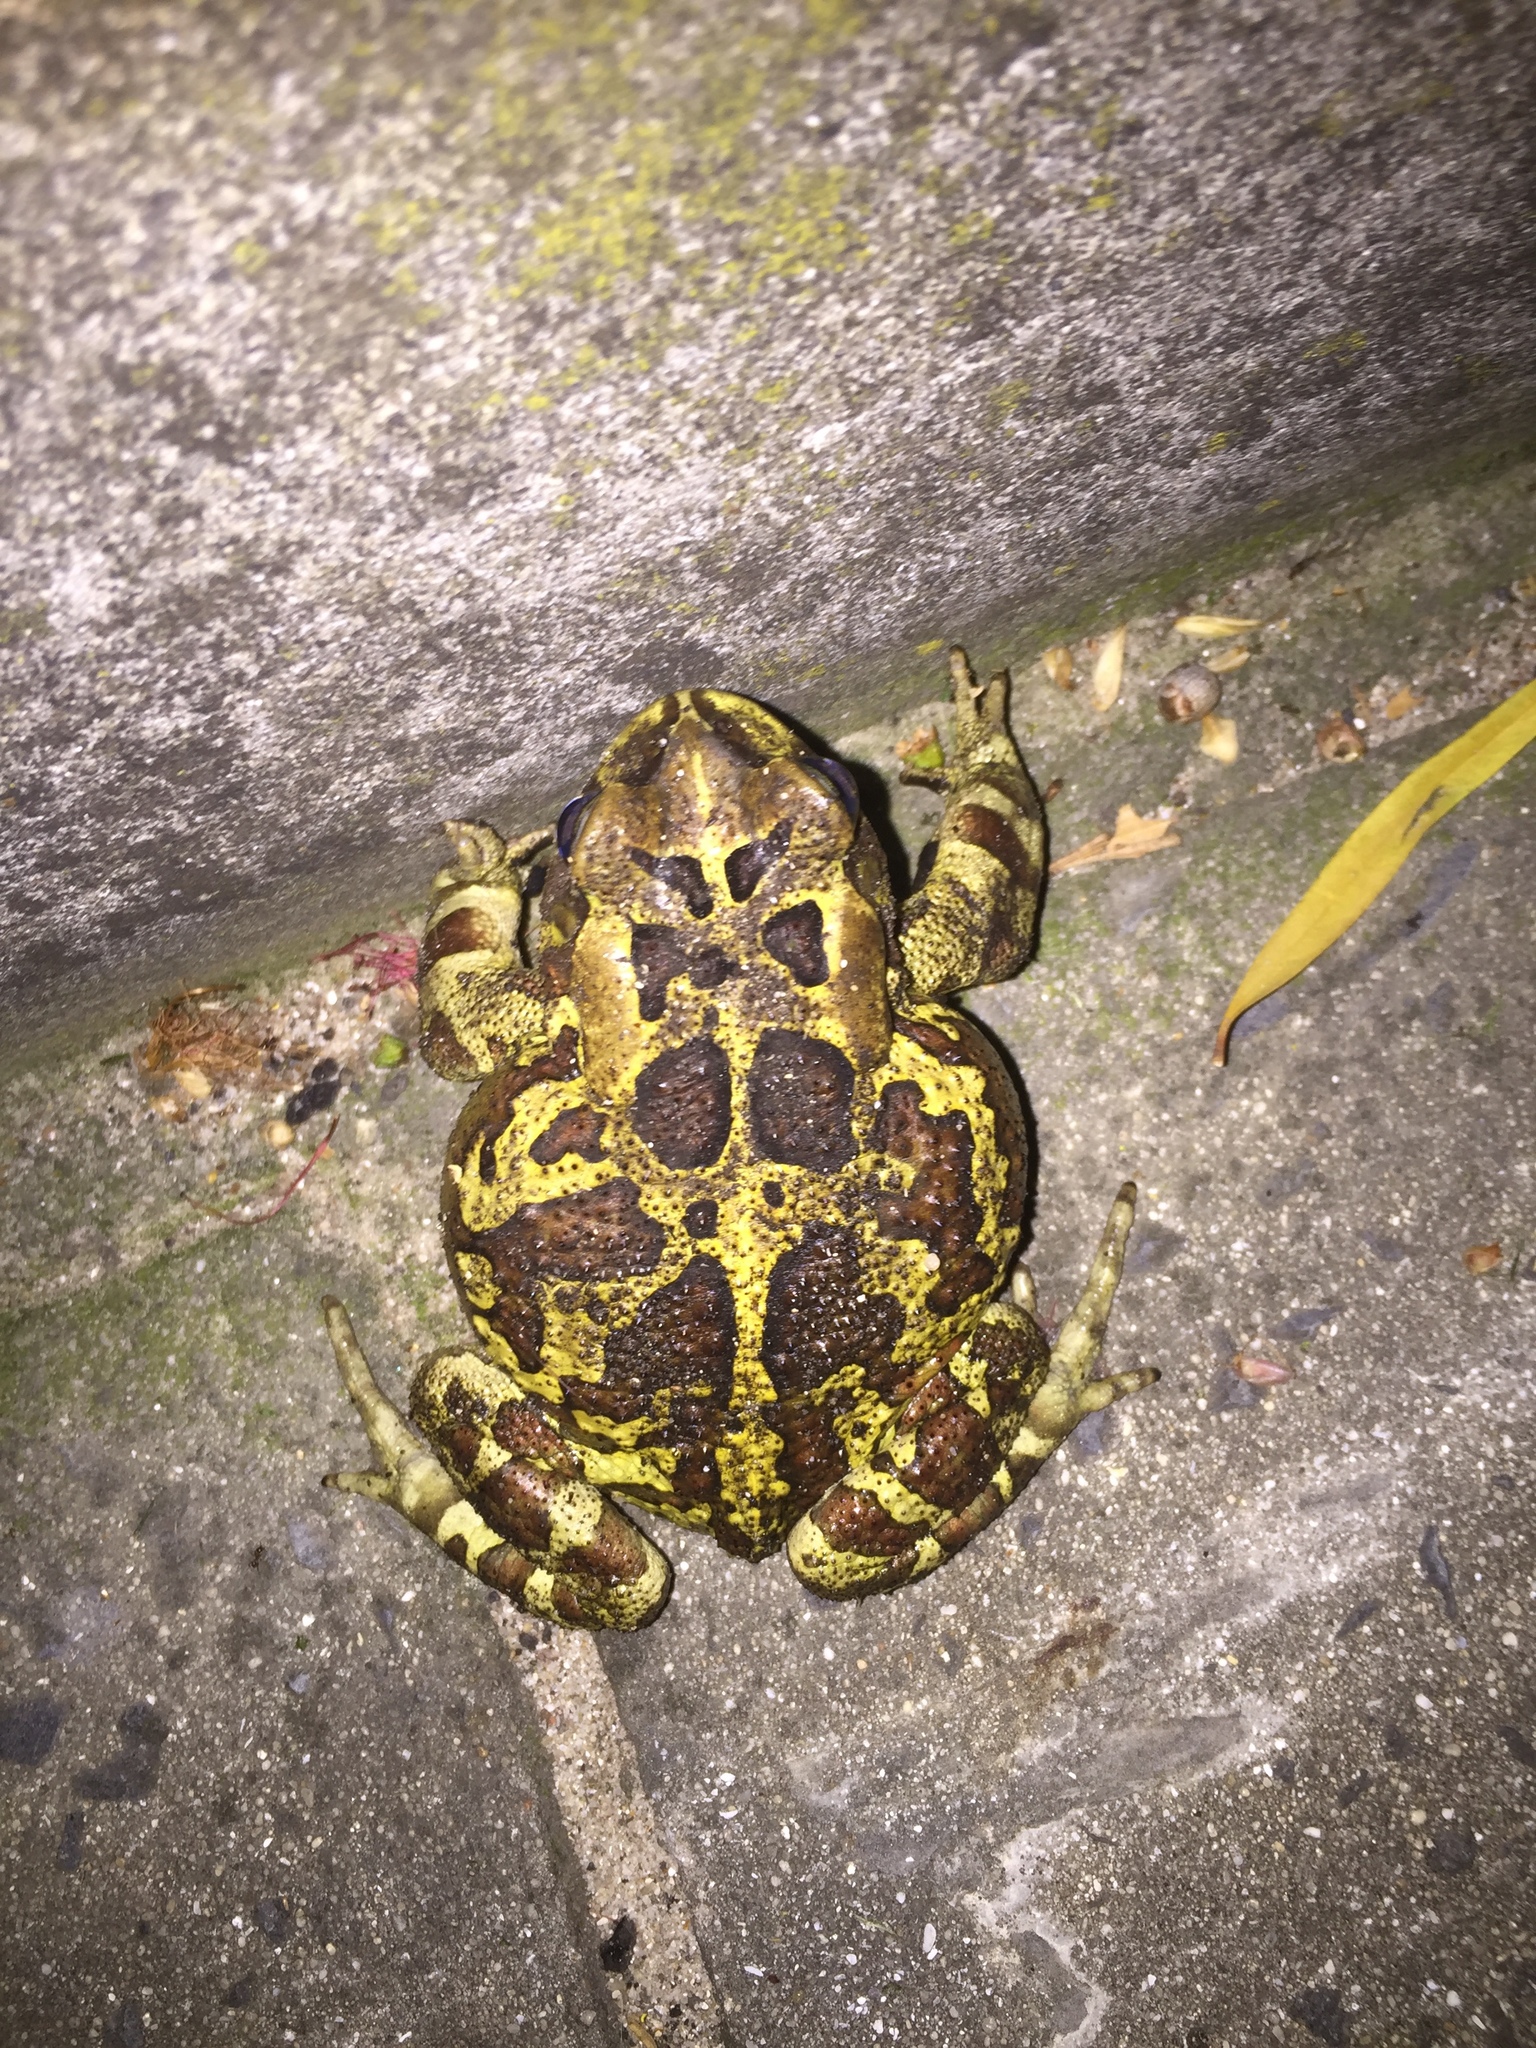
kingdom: Animalia
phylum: Chordata
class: Amphibia
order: Anura
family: Bufonidae
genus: Sclerophrys
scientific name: Sclerophrys pantherina
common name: Panther toad
